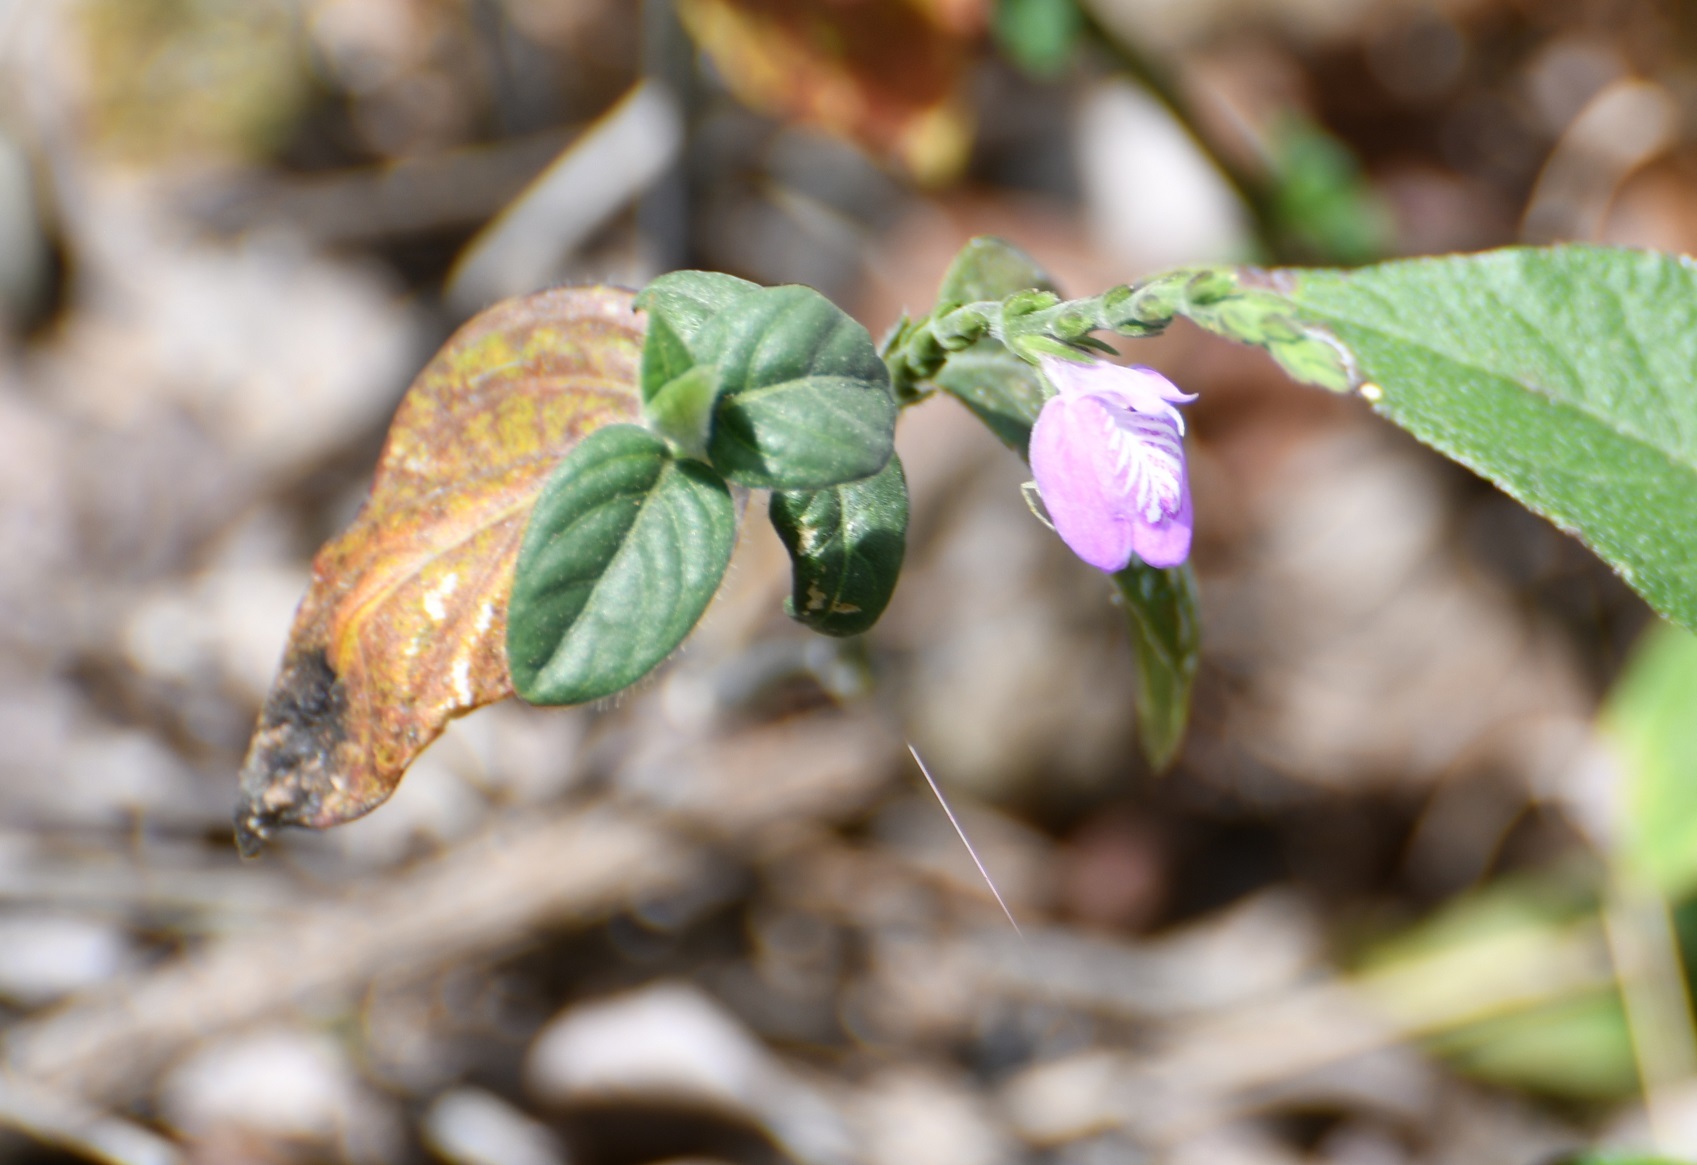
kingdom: Plantae
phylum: Tracheophyta
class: Magnoliopsida
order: Lamiales
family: Acanthaceae
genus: Dianthera
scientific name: Dianthera breviflora
